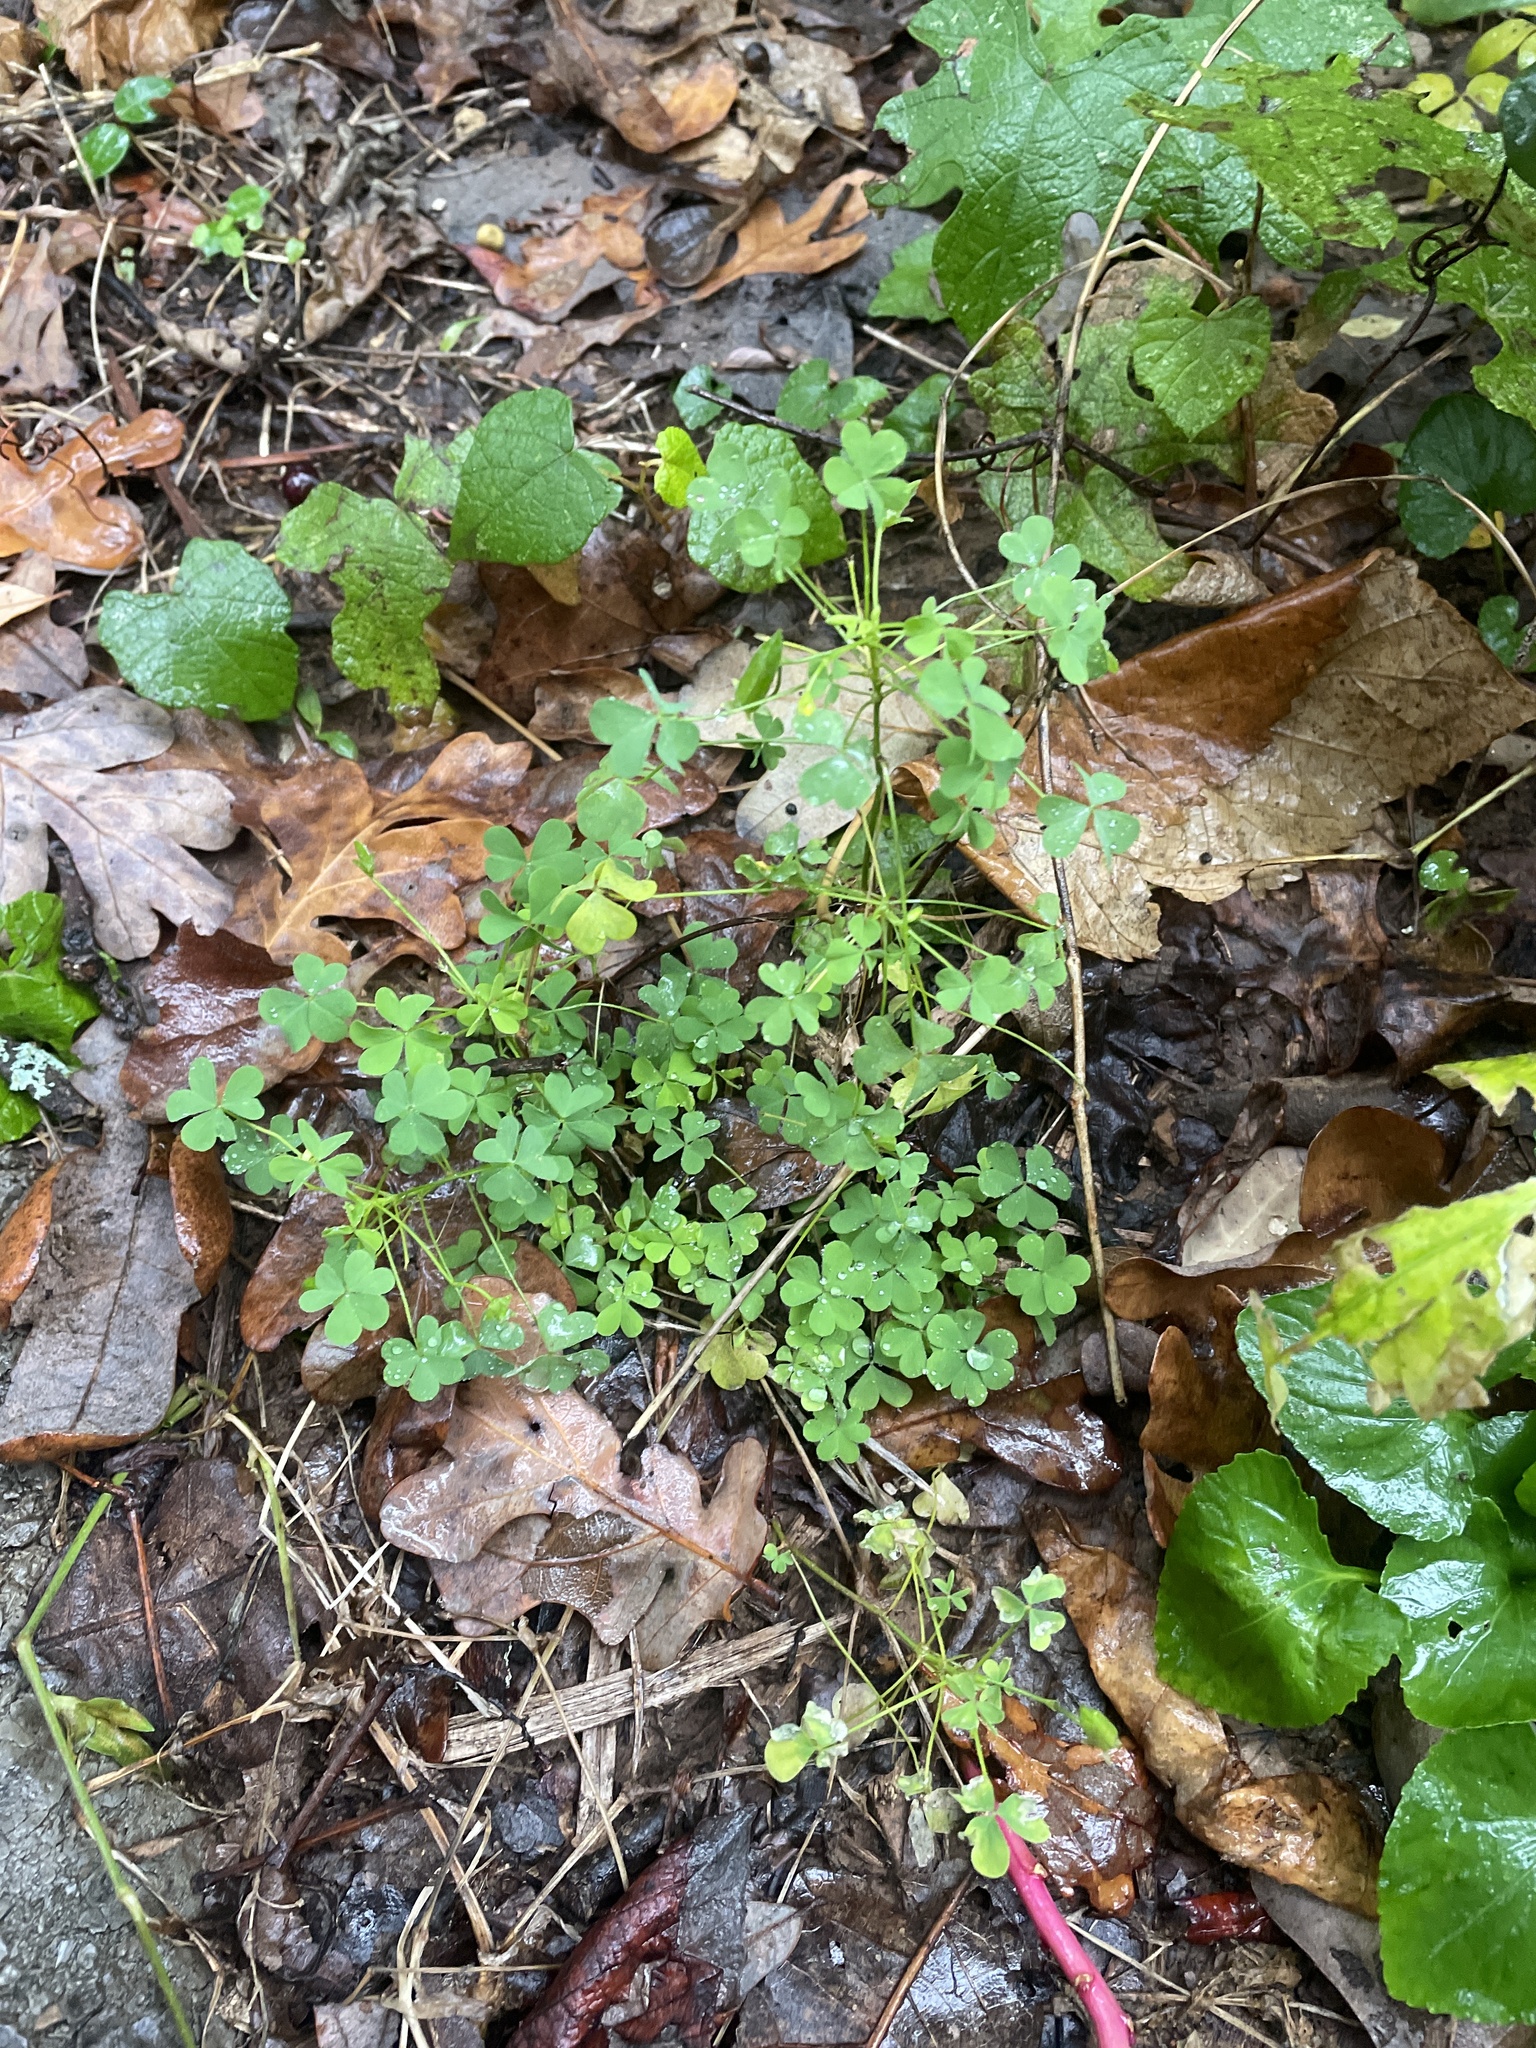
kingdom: Plantae
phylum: Tracheophyta
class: Magnoliopsida
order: Oxalidales
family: Oxalidaceae
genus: Oxalis
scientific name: Oxalis dillenii
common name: Sussex yellow-sorrel
